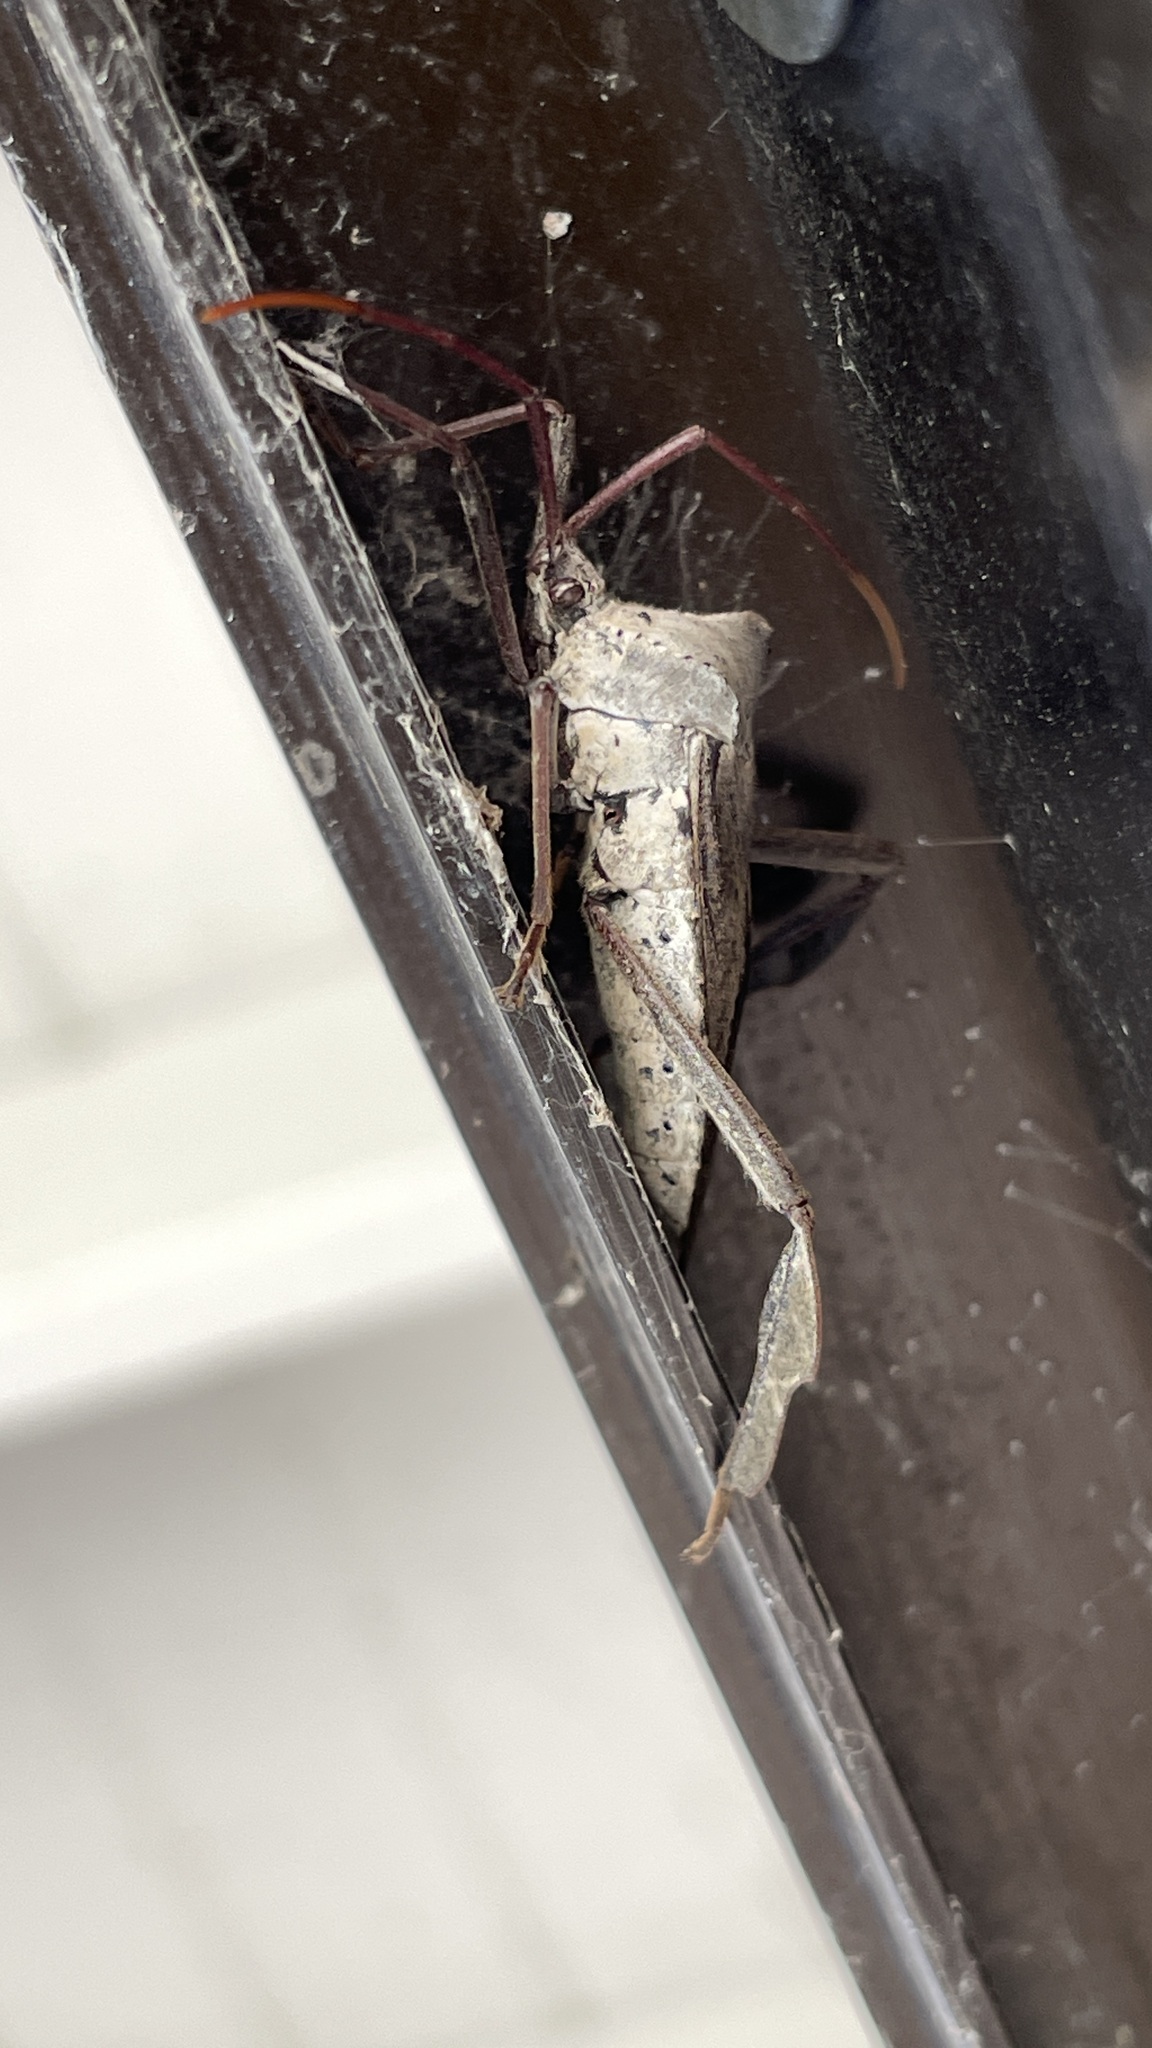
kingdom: Animalia
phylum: Arthropoda
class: Insecta
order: Hemiptera
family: Coreidae
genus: Acanthocephala
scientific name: Acanthocephala declivis
